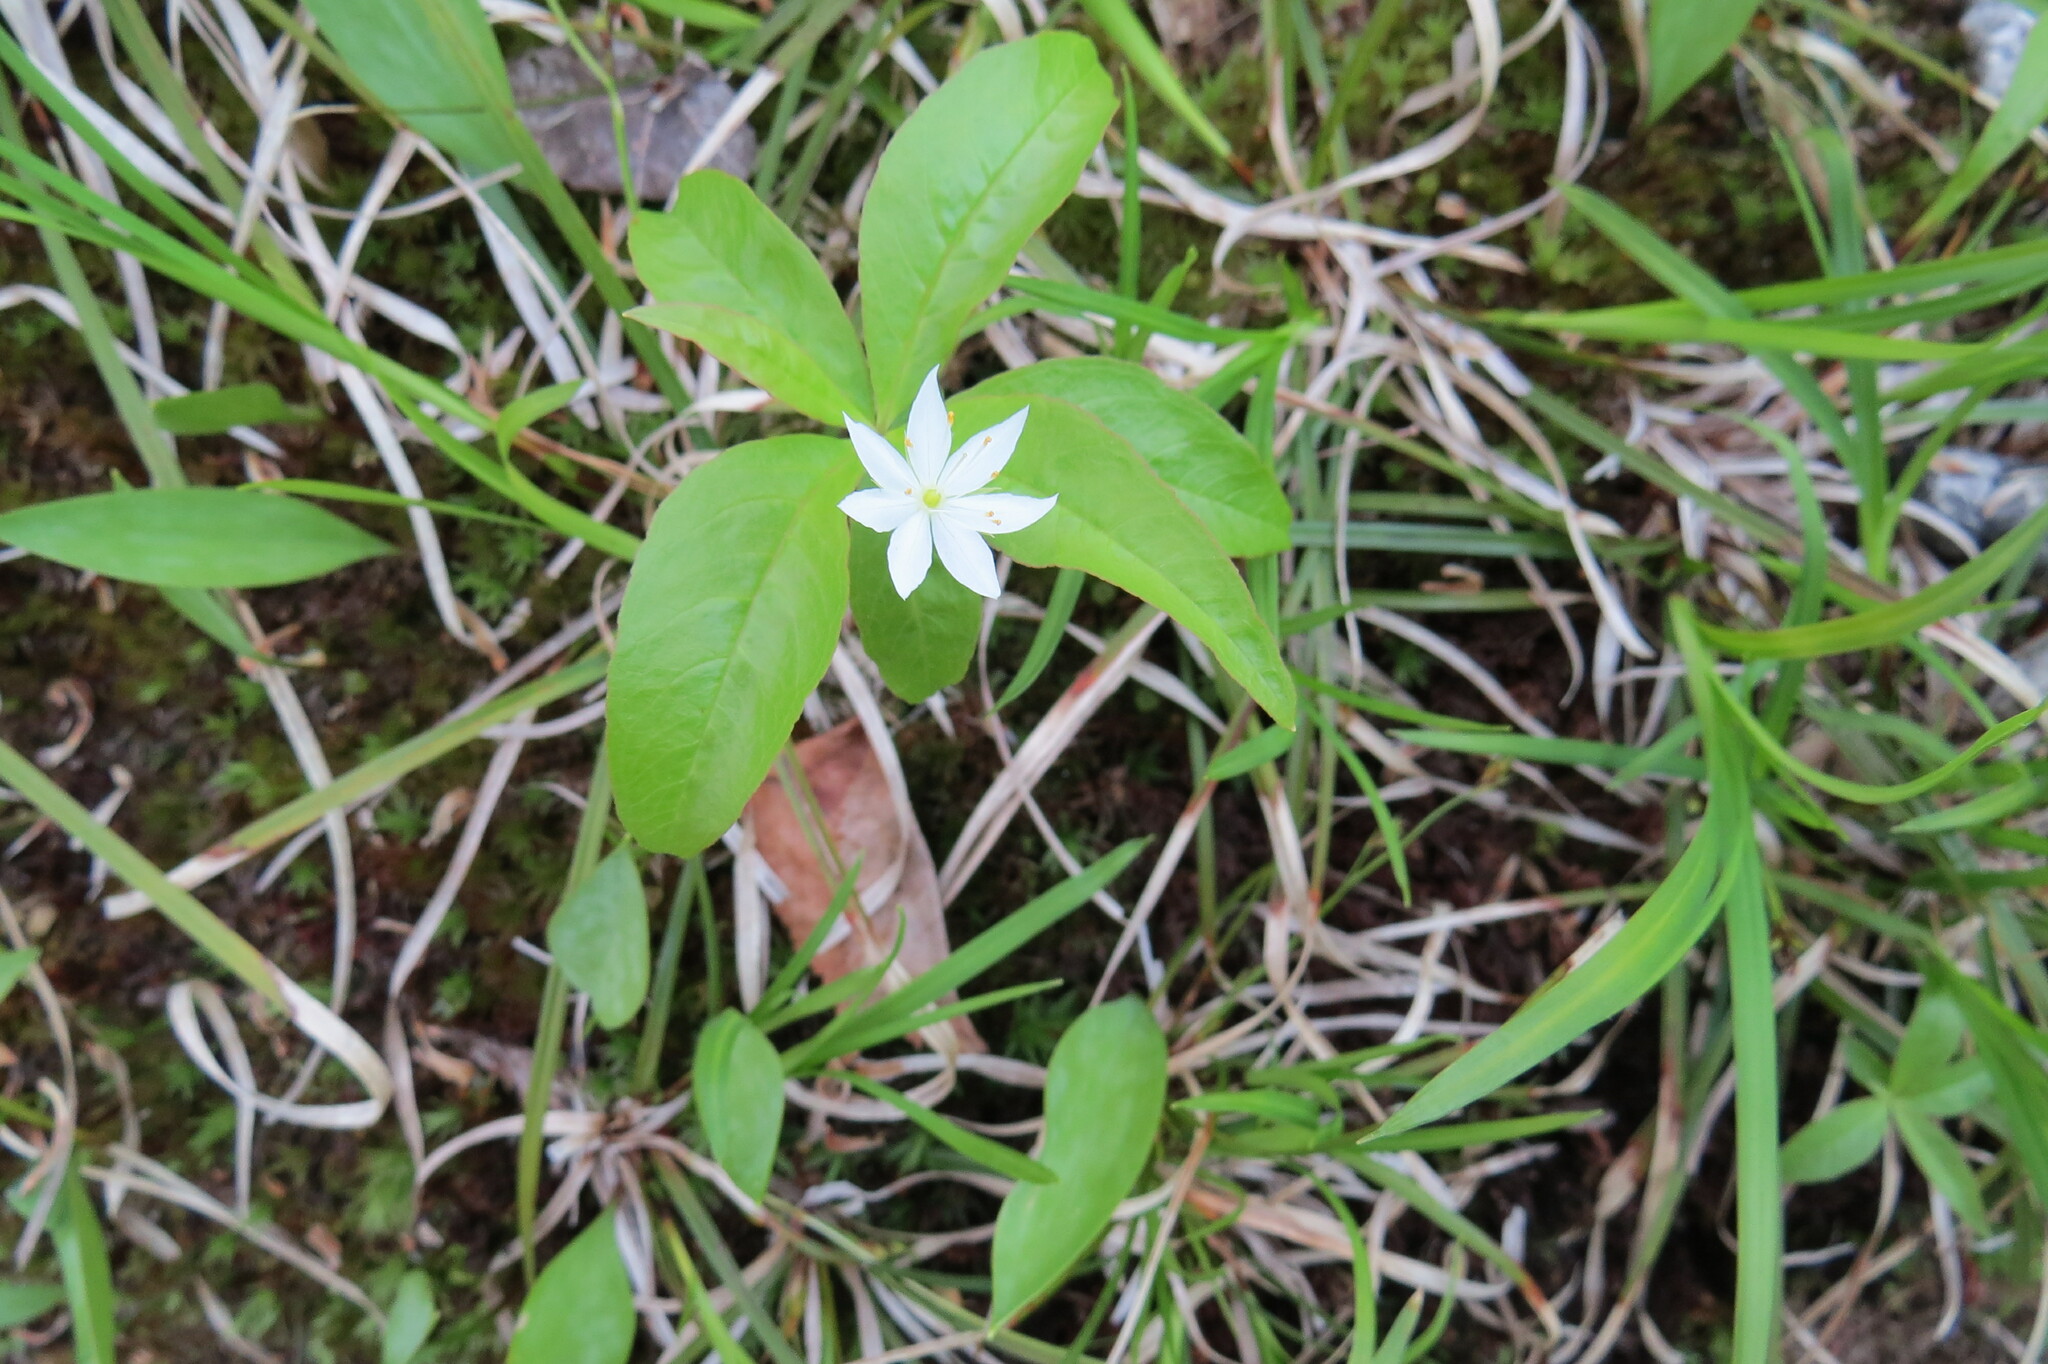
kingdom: Plantae
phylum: Tracheophyta
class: Magnoliopsida
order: Ericales
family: Primulaceae
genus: Lysimachia
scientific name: Lysimachia borealis
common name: American starflower
